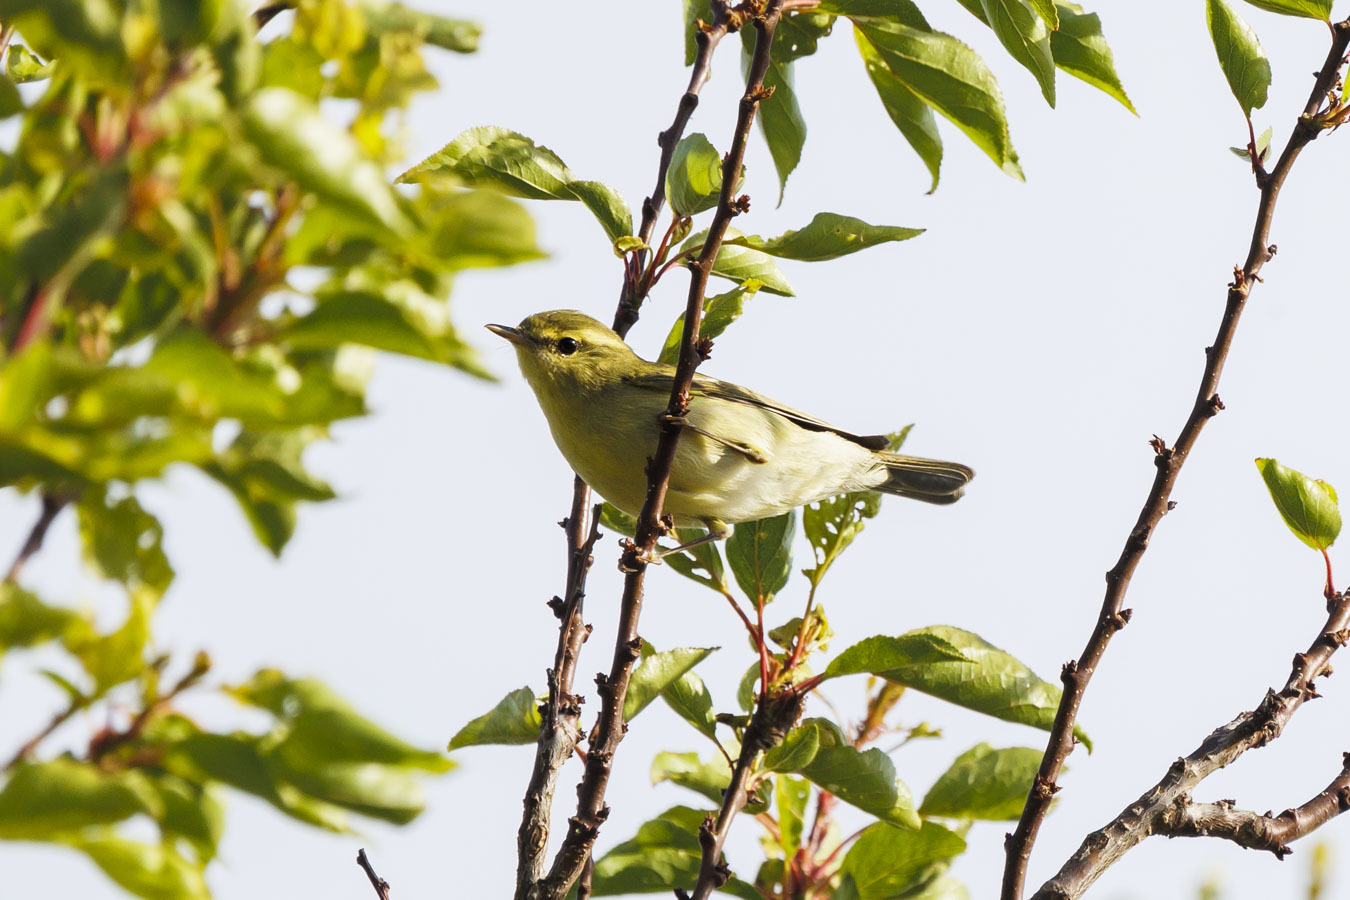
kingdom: Animalia
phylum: Chordata
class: Aves
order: Passeriformes
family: Phylloscopidae
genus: Phylloscopus
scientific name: Phylloscopus nitidus
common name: Green warbler
